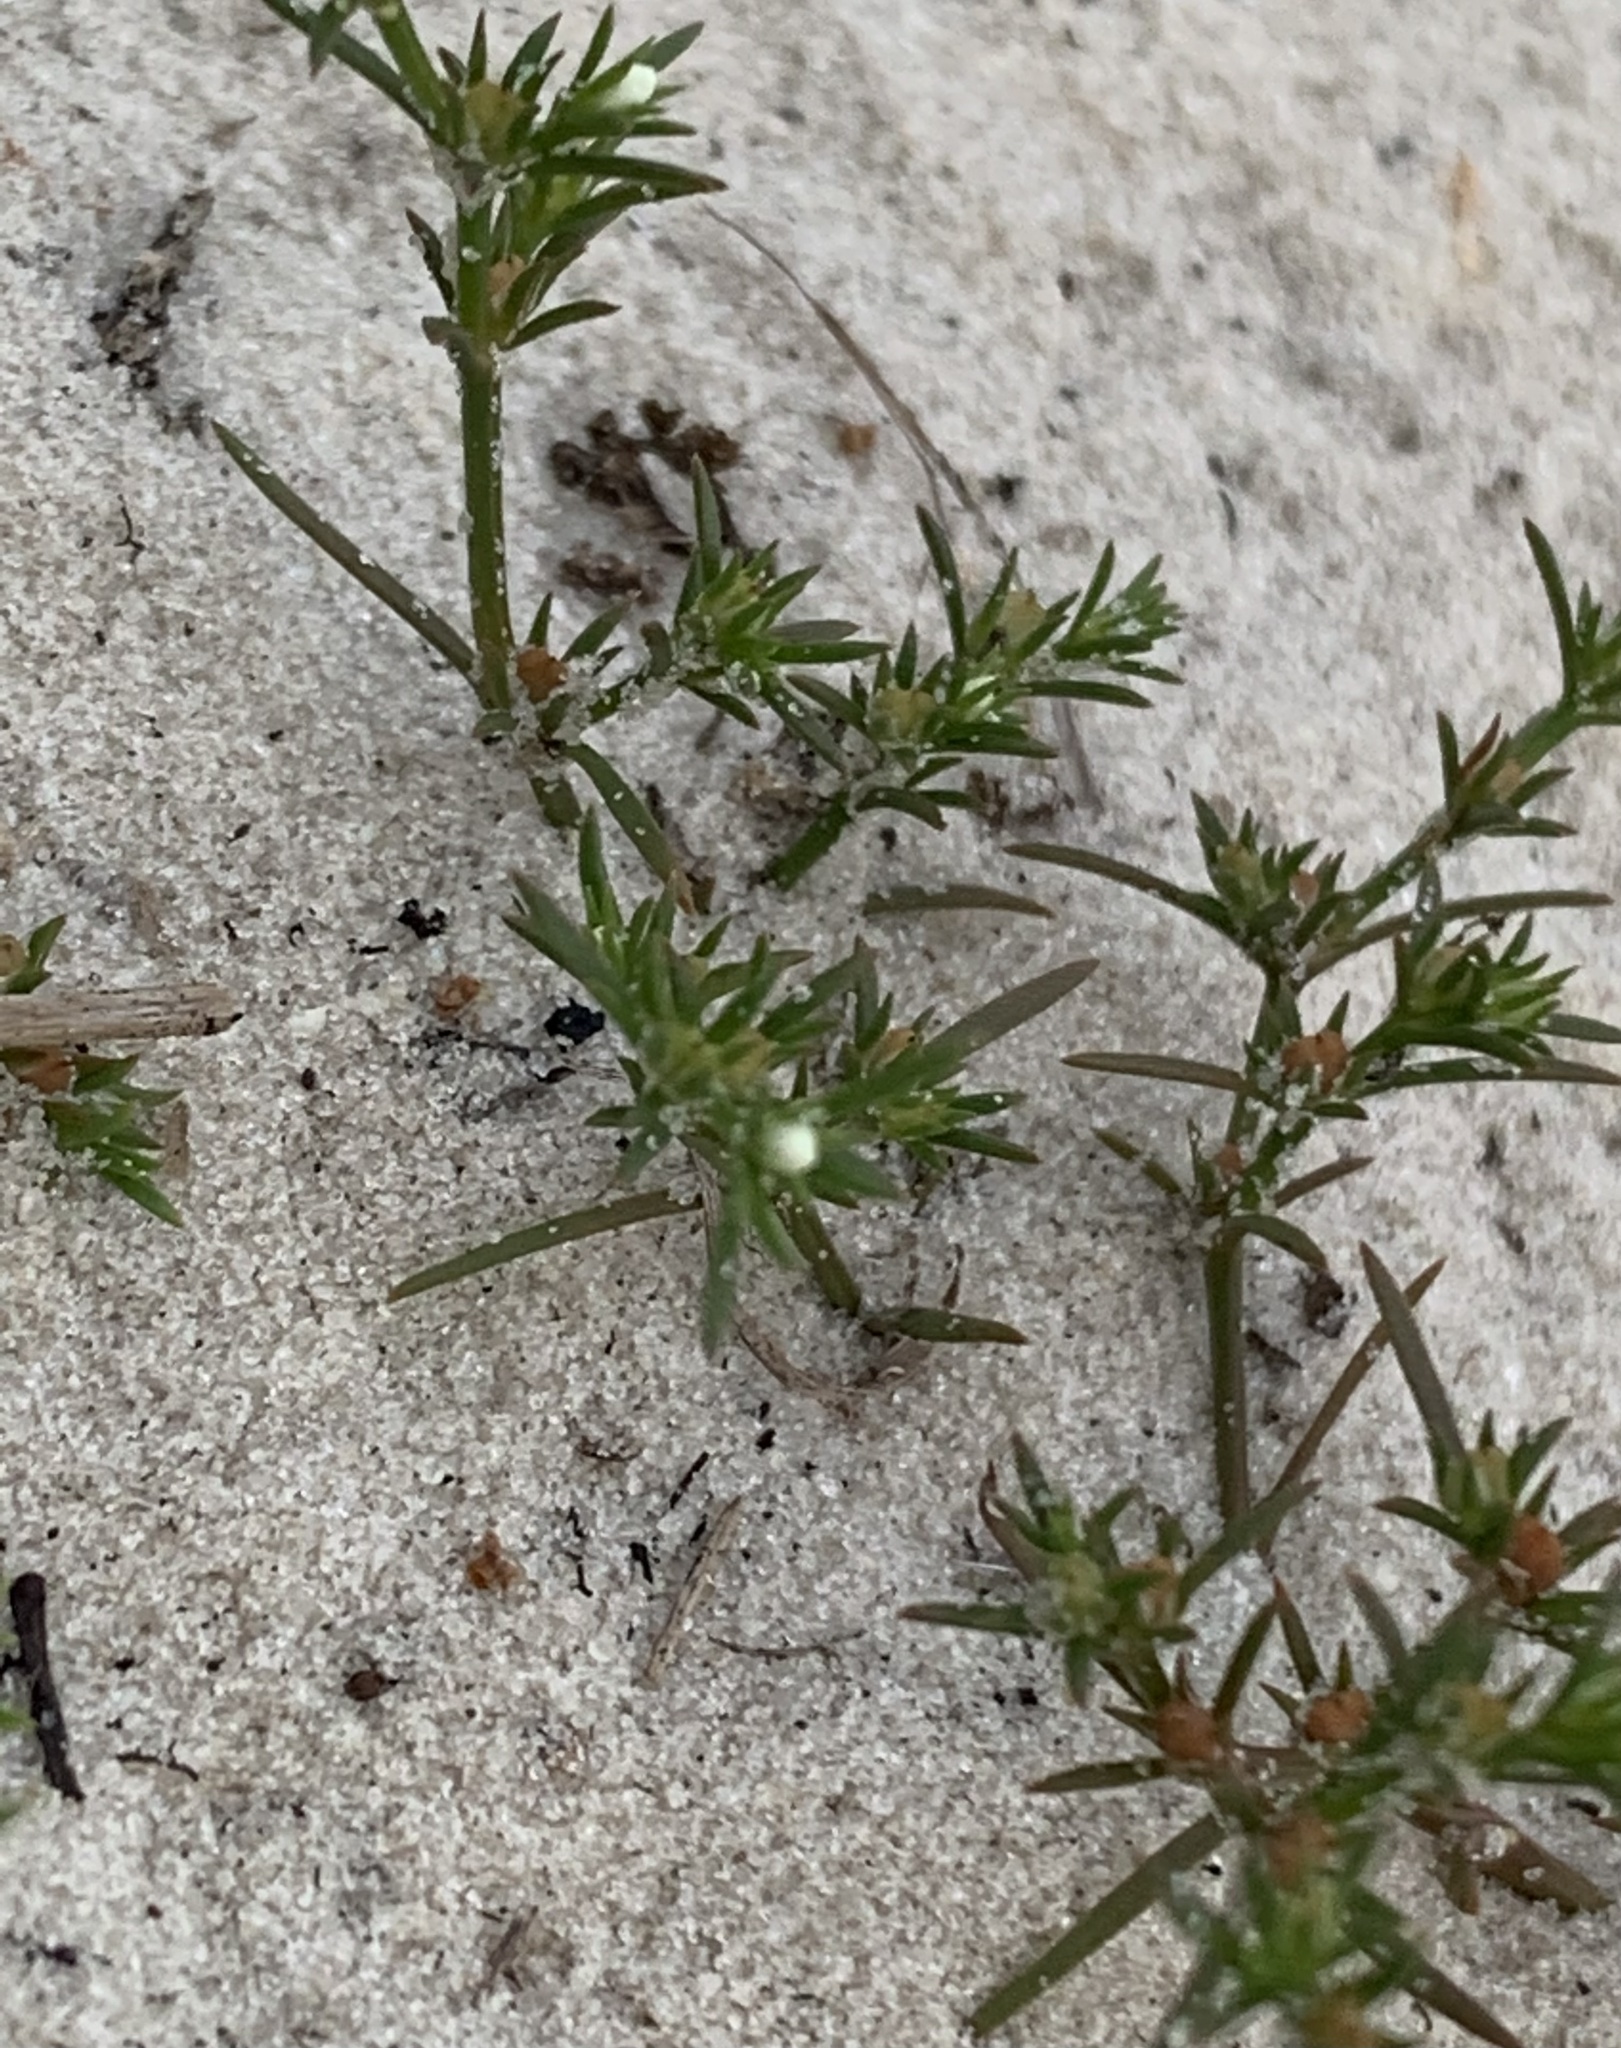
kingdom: Plantae
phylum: Tracheophyta
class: Magnoliopsida
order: Lamiales
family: Tetrachondraceae
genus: Polypremum
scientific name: Polypremum procumbens
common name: Juniper-leaf
